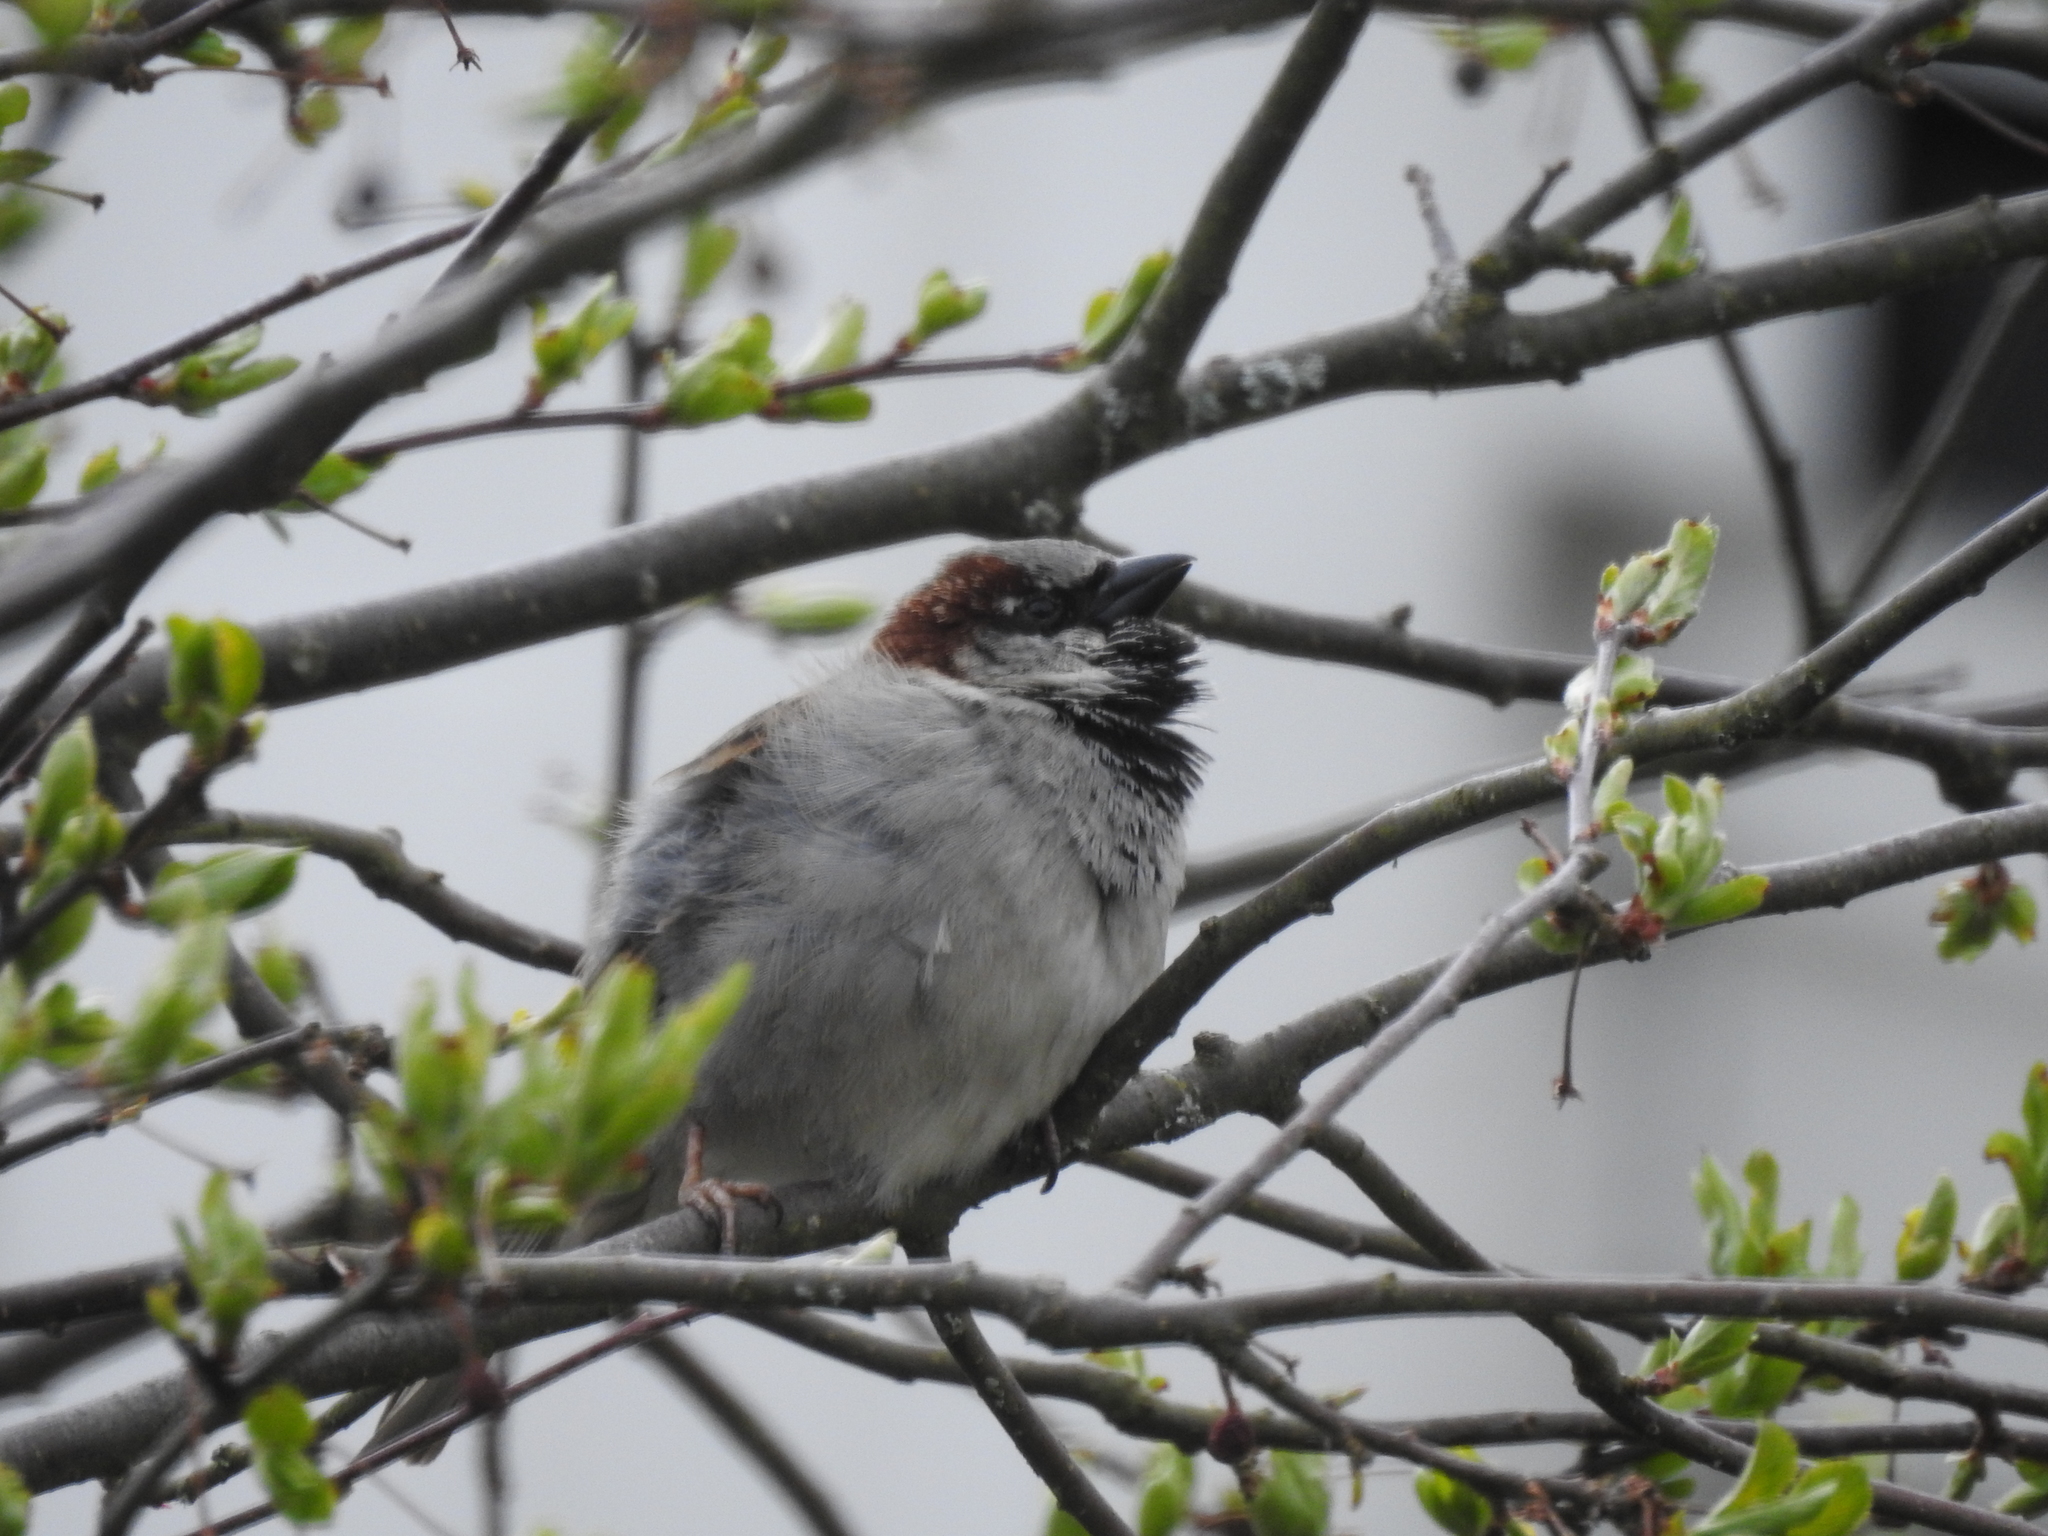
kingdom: Animalia
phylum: Chordata
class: Aves
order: Passeriformes
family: Passeridae
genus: Passer
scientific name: Passer domesticus
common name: House sparrow
